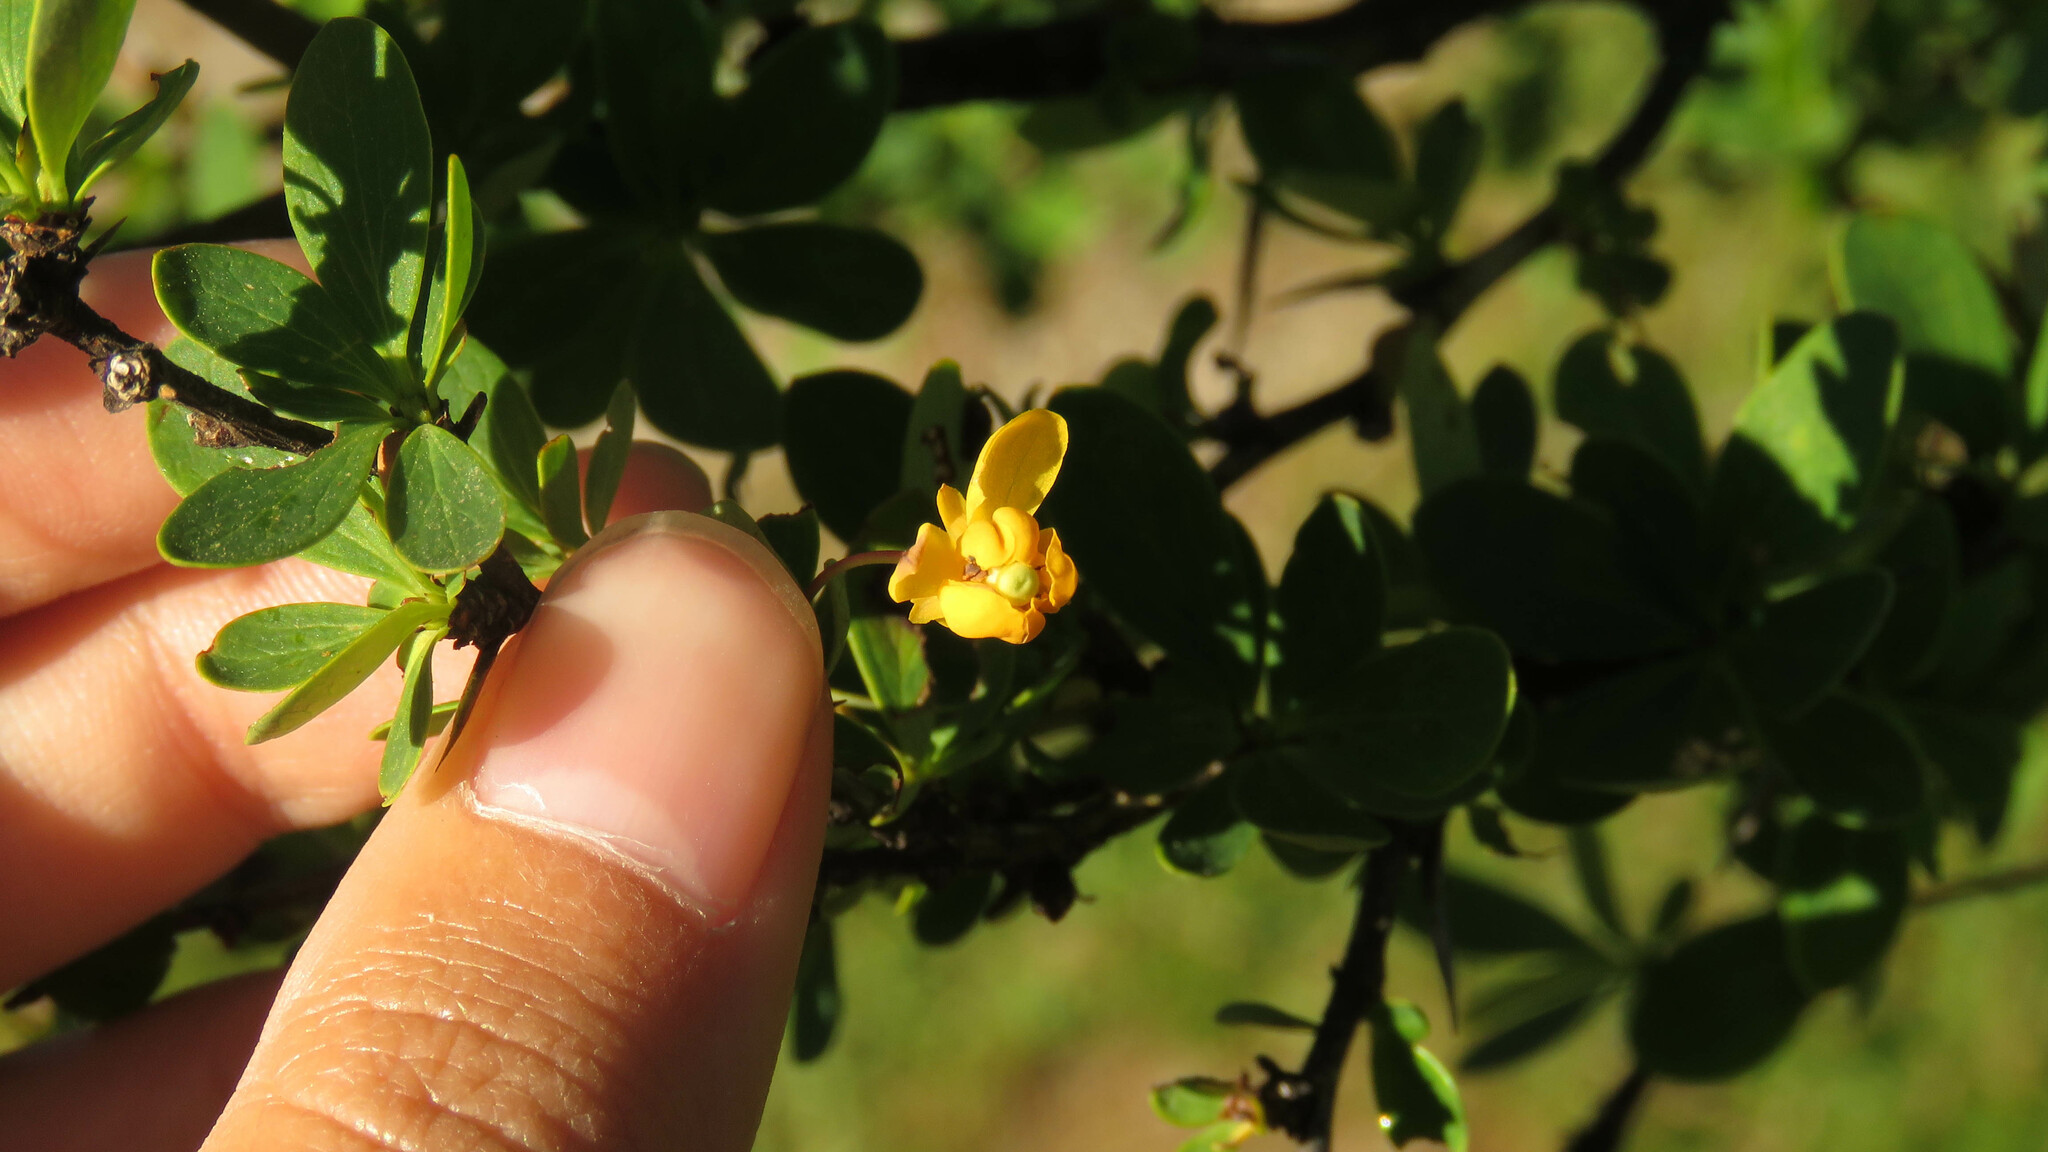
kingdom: Plantae
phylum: Tracheophyta
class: Magnoliopsida
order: Ranunculales
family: Berberidaceae
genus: Berberis
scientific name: Berberis microphylla
